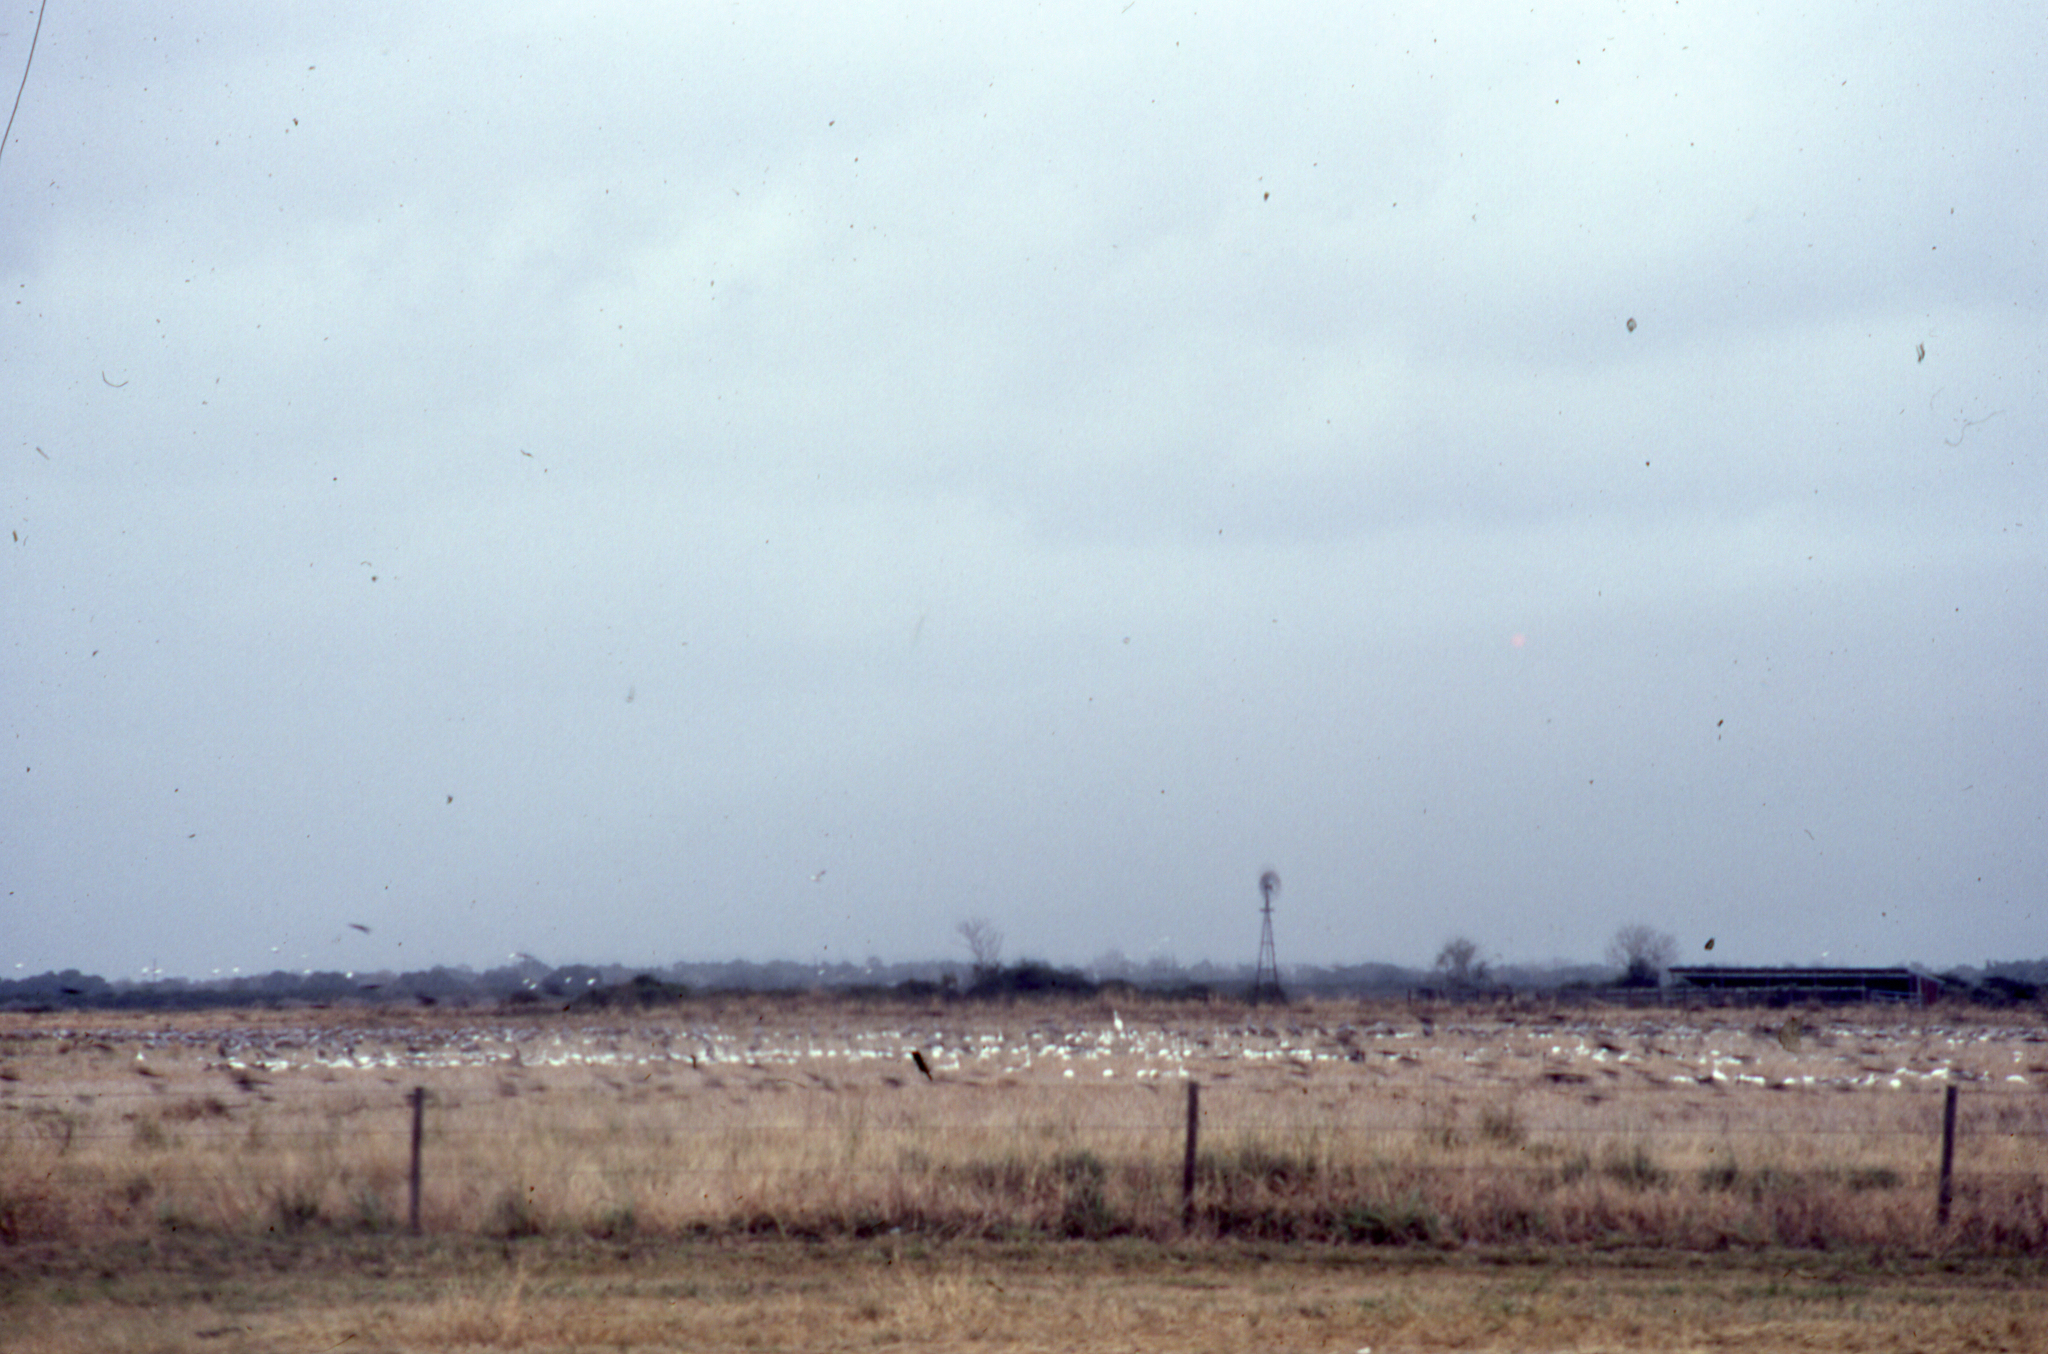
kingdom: Animalia
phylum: Chordata
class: Aves
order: Gruiformes
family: Gruidae
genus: Grus
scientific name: Grus americana
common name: Whooping crane
